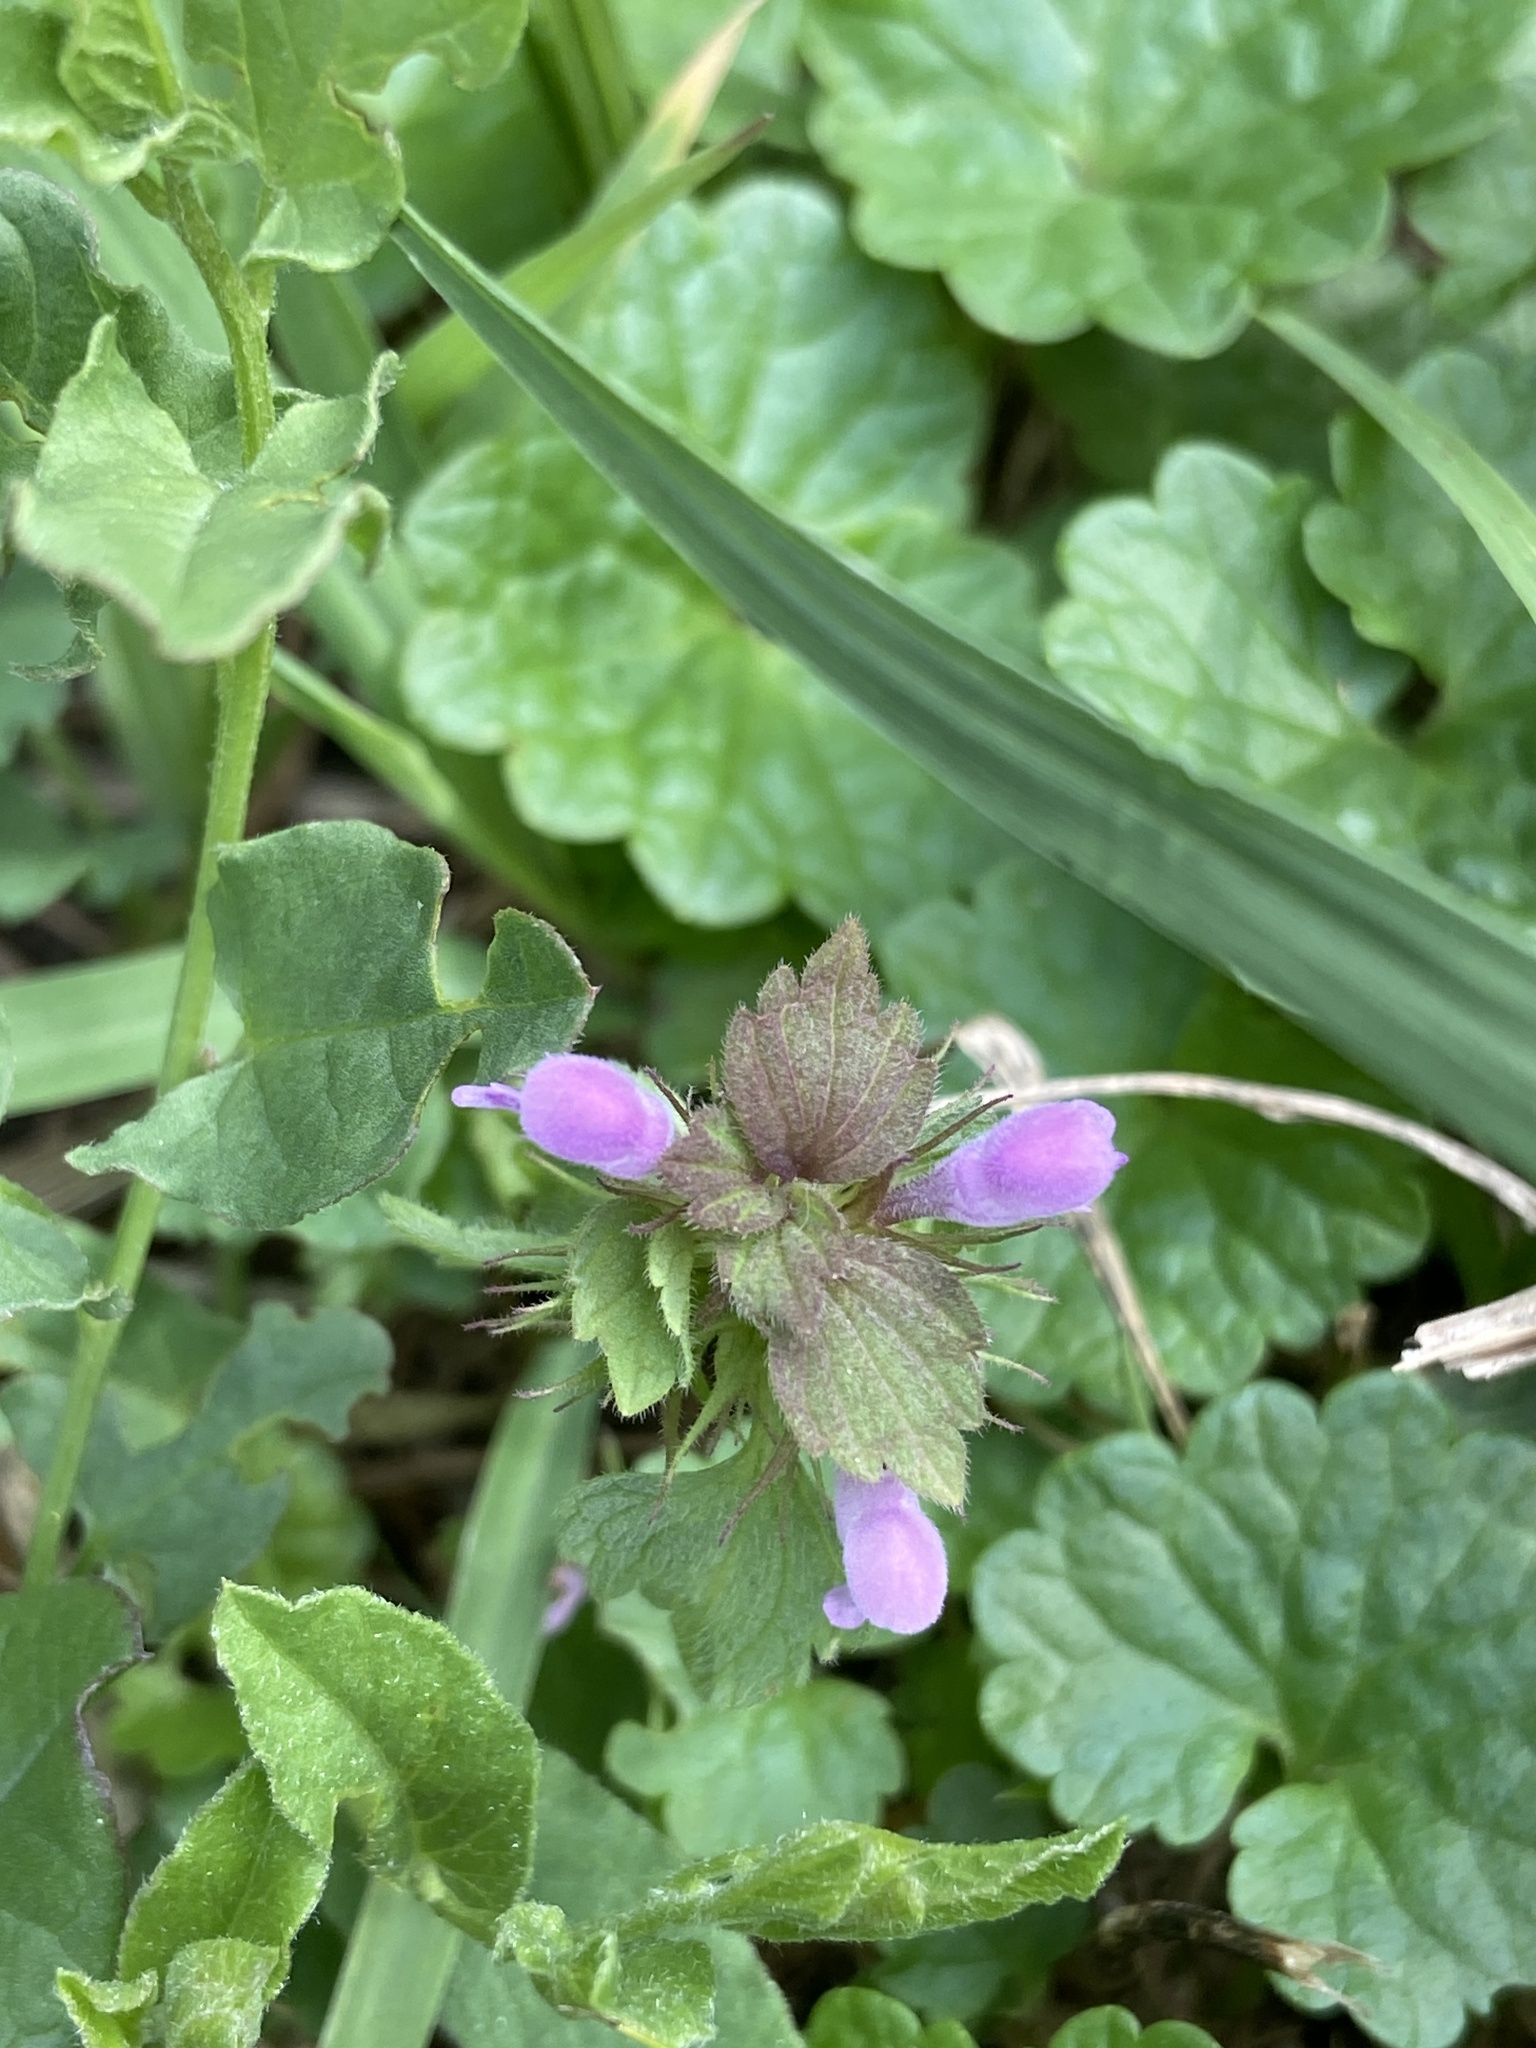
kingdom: Plantae
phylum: Tracheophyta
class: Magnoliopsida
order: Lamiales
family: Lamiaceae
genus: Lamium
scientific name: Lamium purpureum
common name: Red dead-nettle
